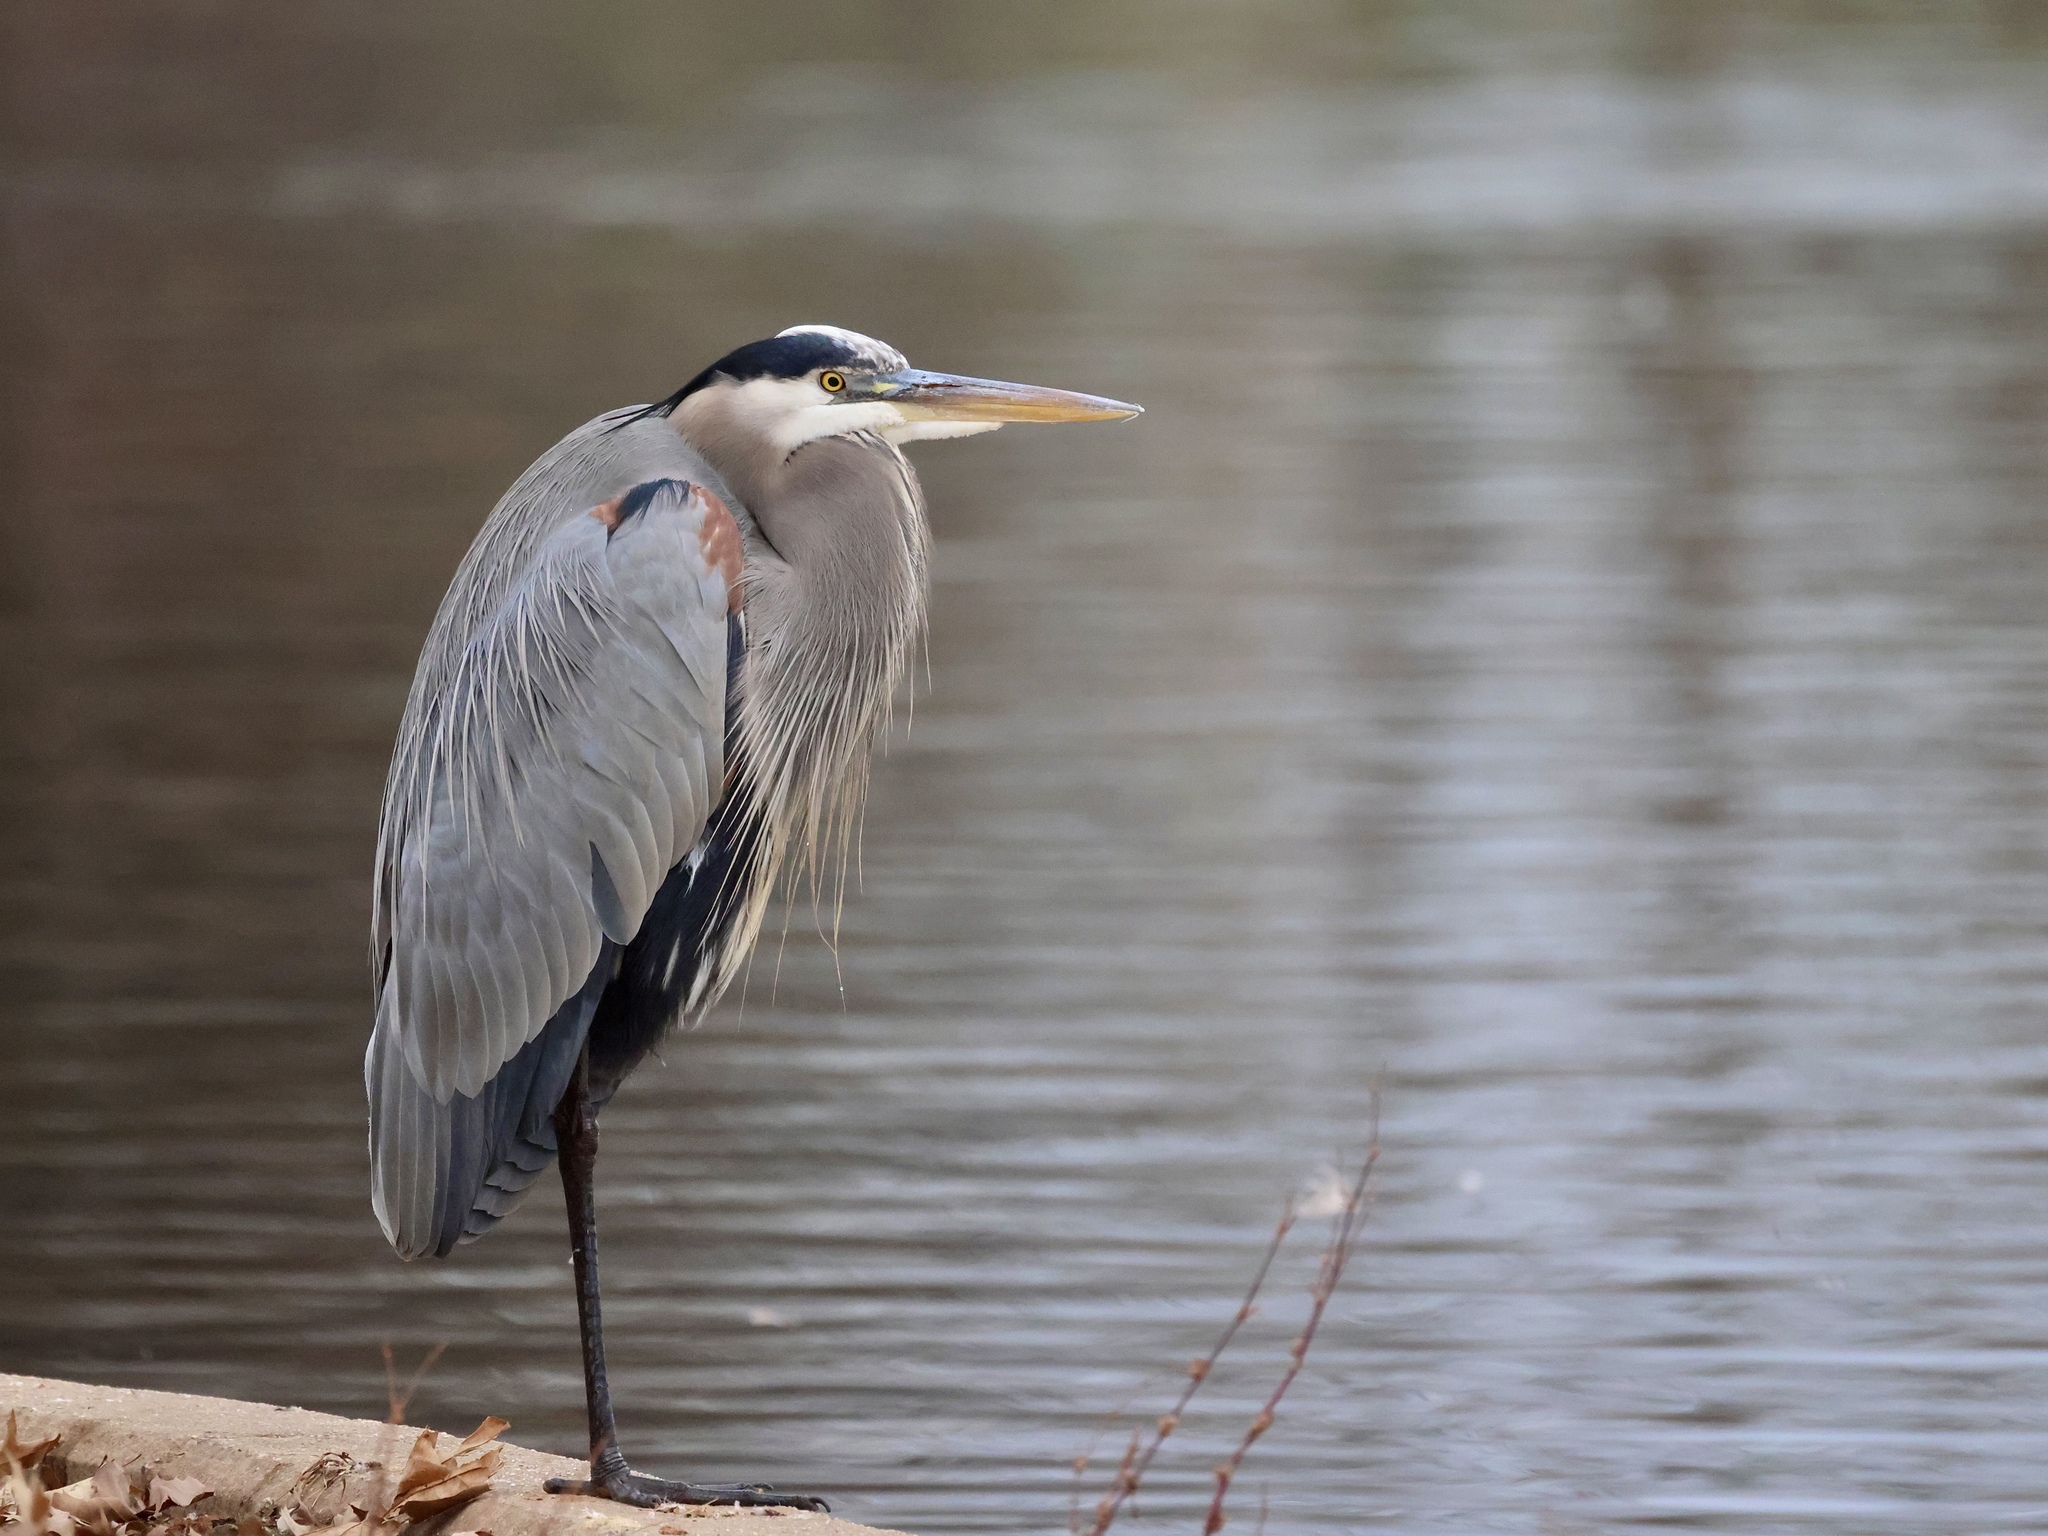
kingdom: Animalia
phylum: Chordata
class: Aves
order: Pelecaniformes
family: Ardeidae
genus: Ardea
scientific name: Ardea herodias
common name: Great blue heron
